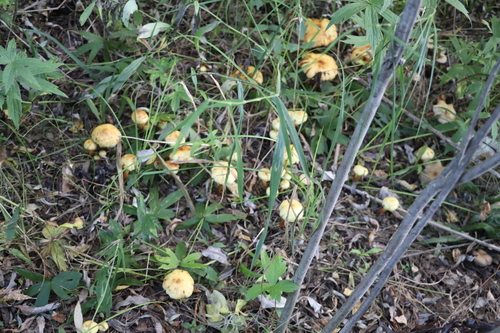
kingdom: Fungi
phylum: Basidiomycota
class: Agaricomycetes
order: Agaricales
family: Hymenogastraceae
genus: Flammula
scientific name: Flammula alnicola
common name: Alder scalycap
